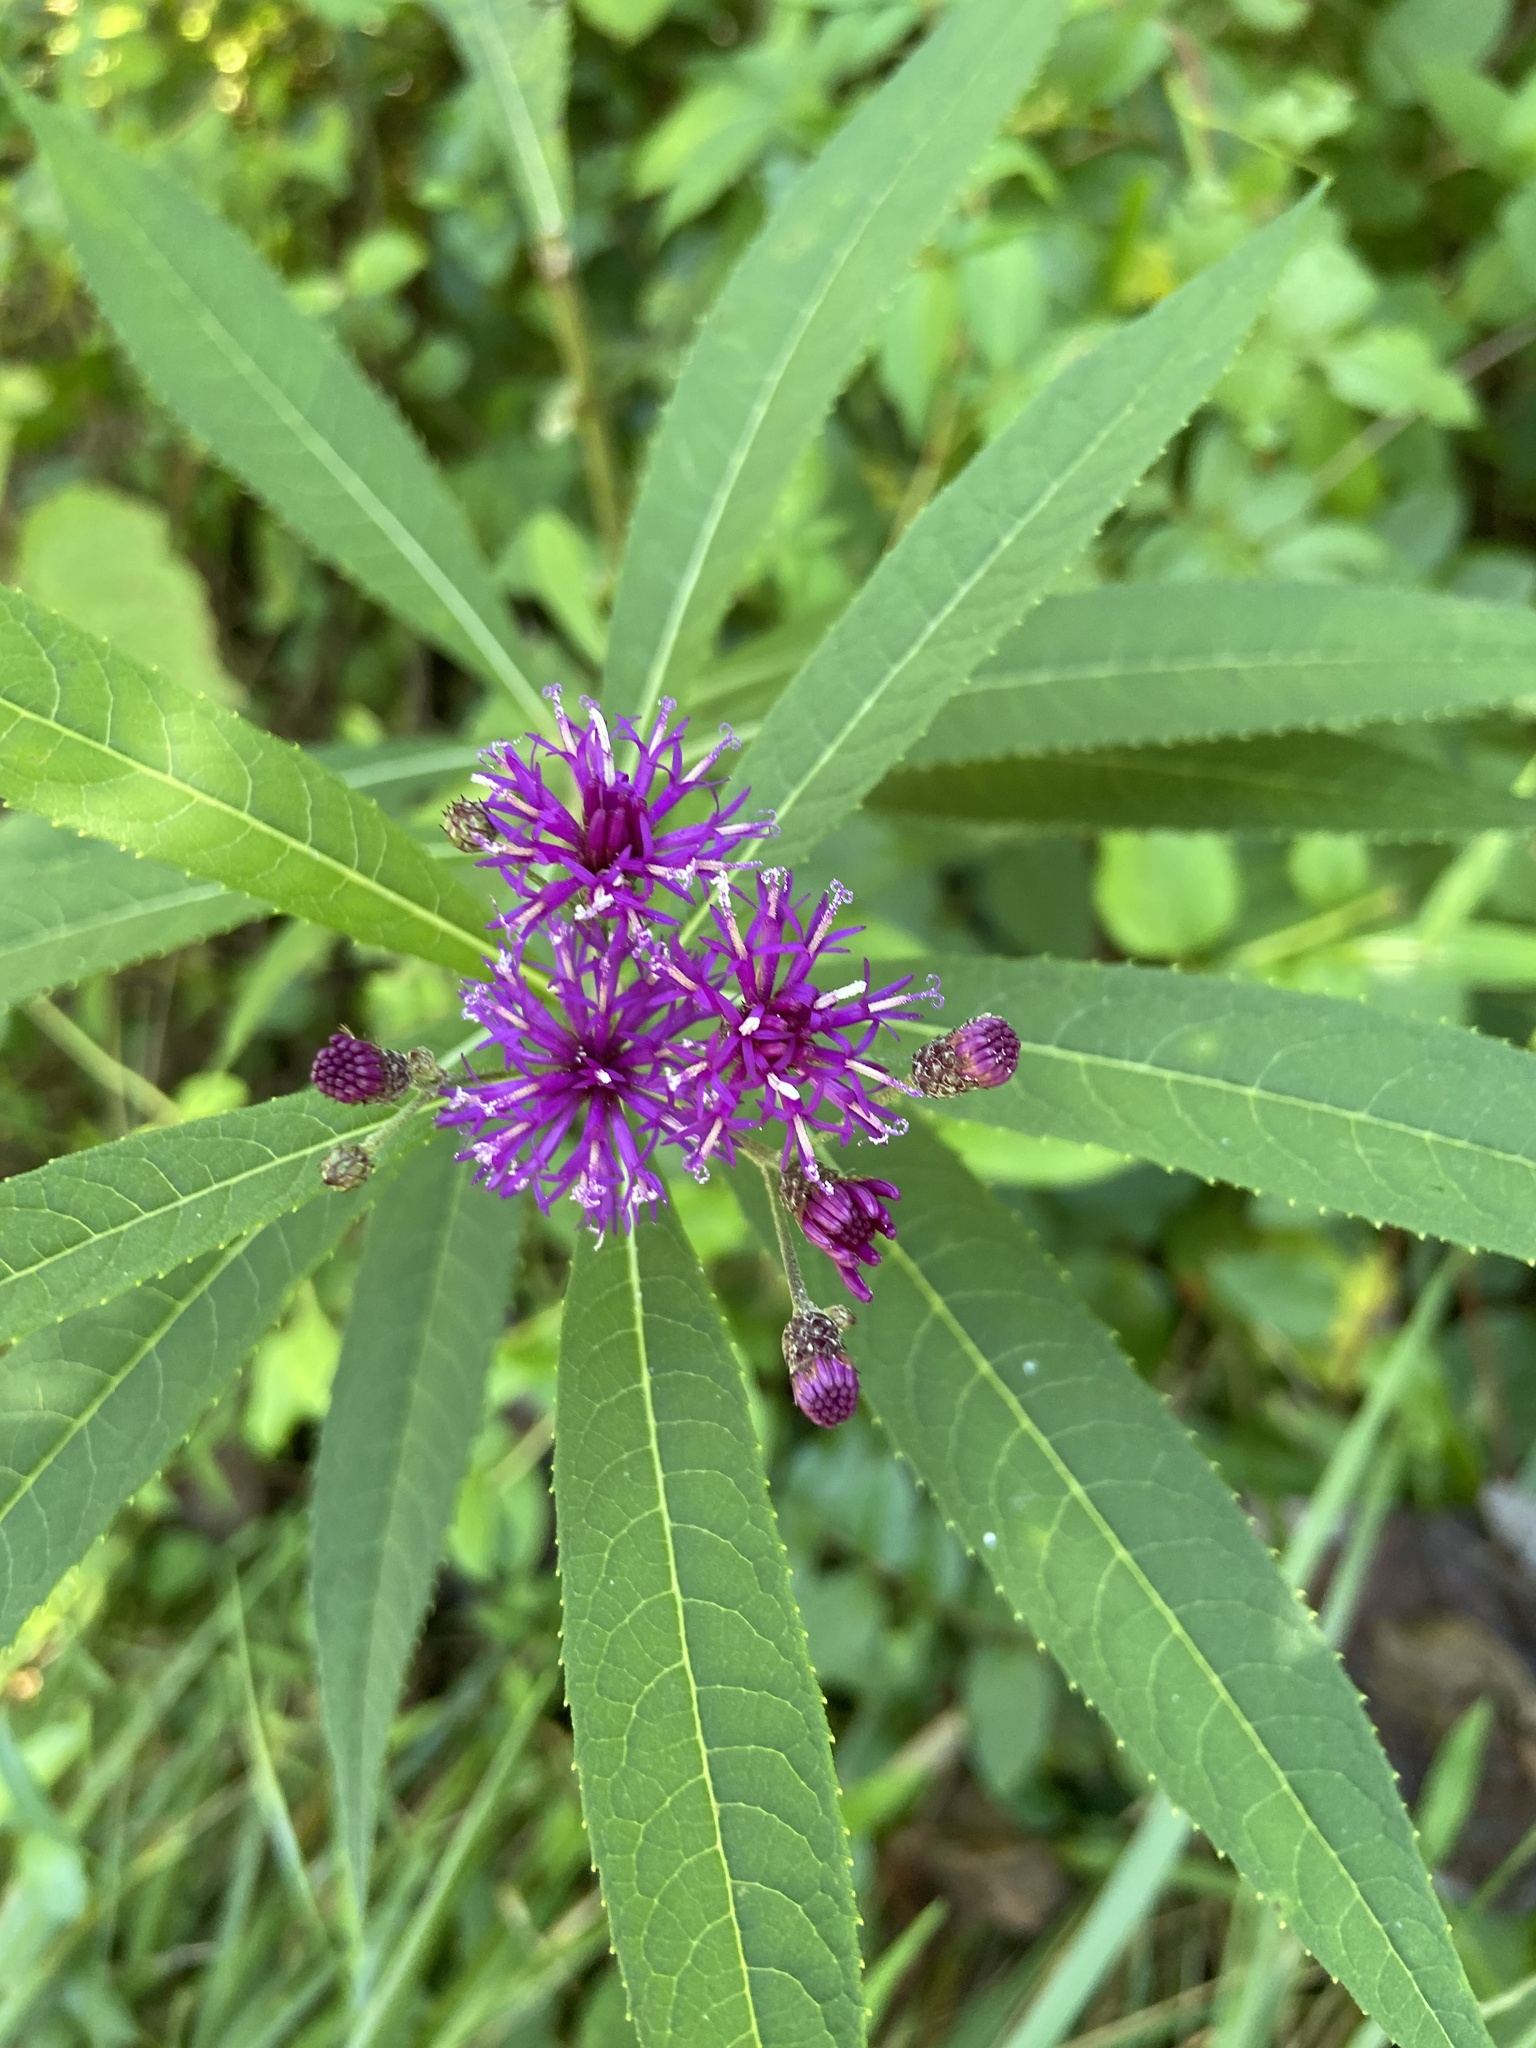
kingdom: Plantae
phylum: Tracheophyta
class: Magnoliopsida
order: Asterales
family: Asteraceae
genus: Vernonia
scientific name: Vernonia noveboracensis
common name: New york ironweed
